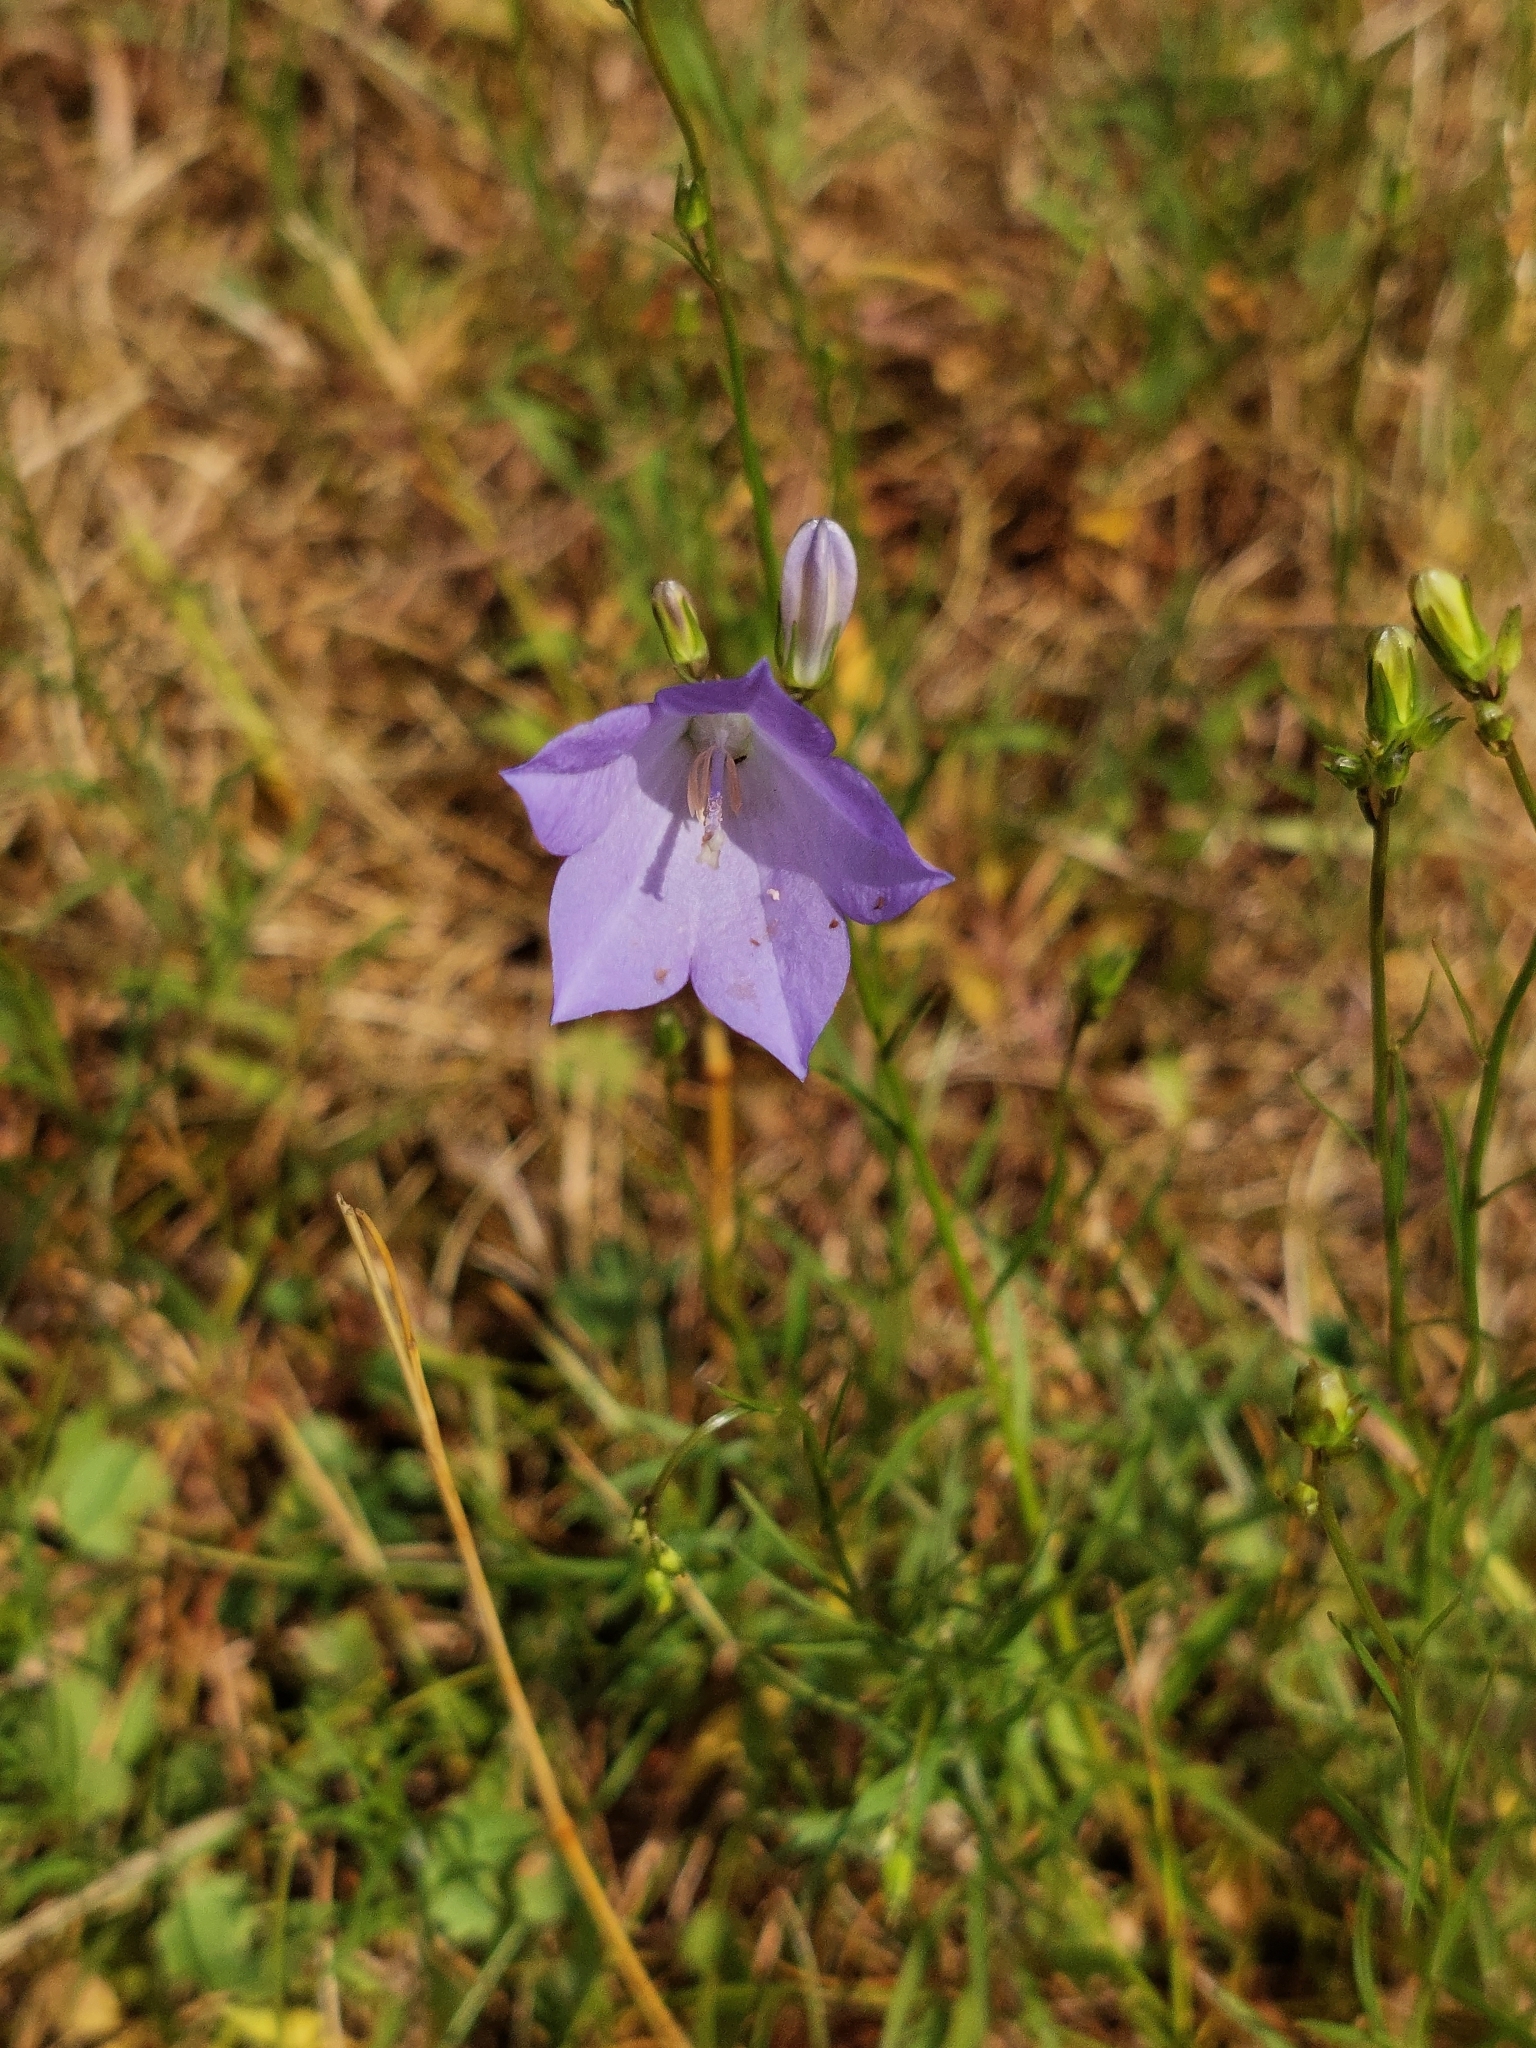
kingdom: Plantae
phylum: Tracheophyta
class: Magnoliopsida
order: Asterales
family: Campanulaceae
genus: Campanula
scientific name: Campanula rotundifolia
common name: Harebell
